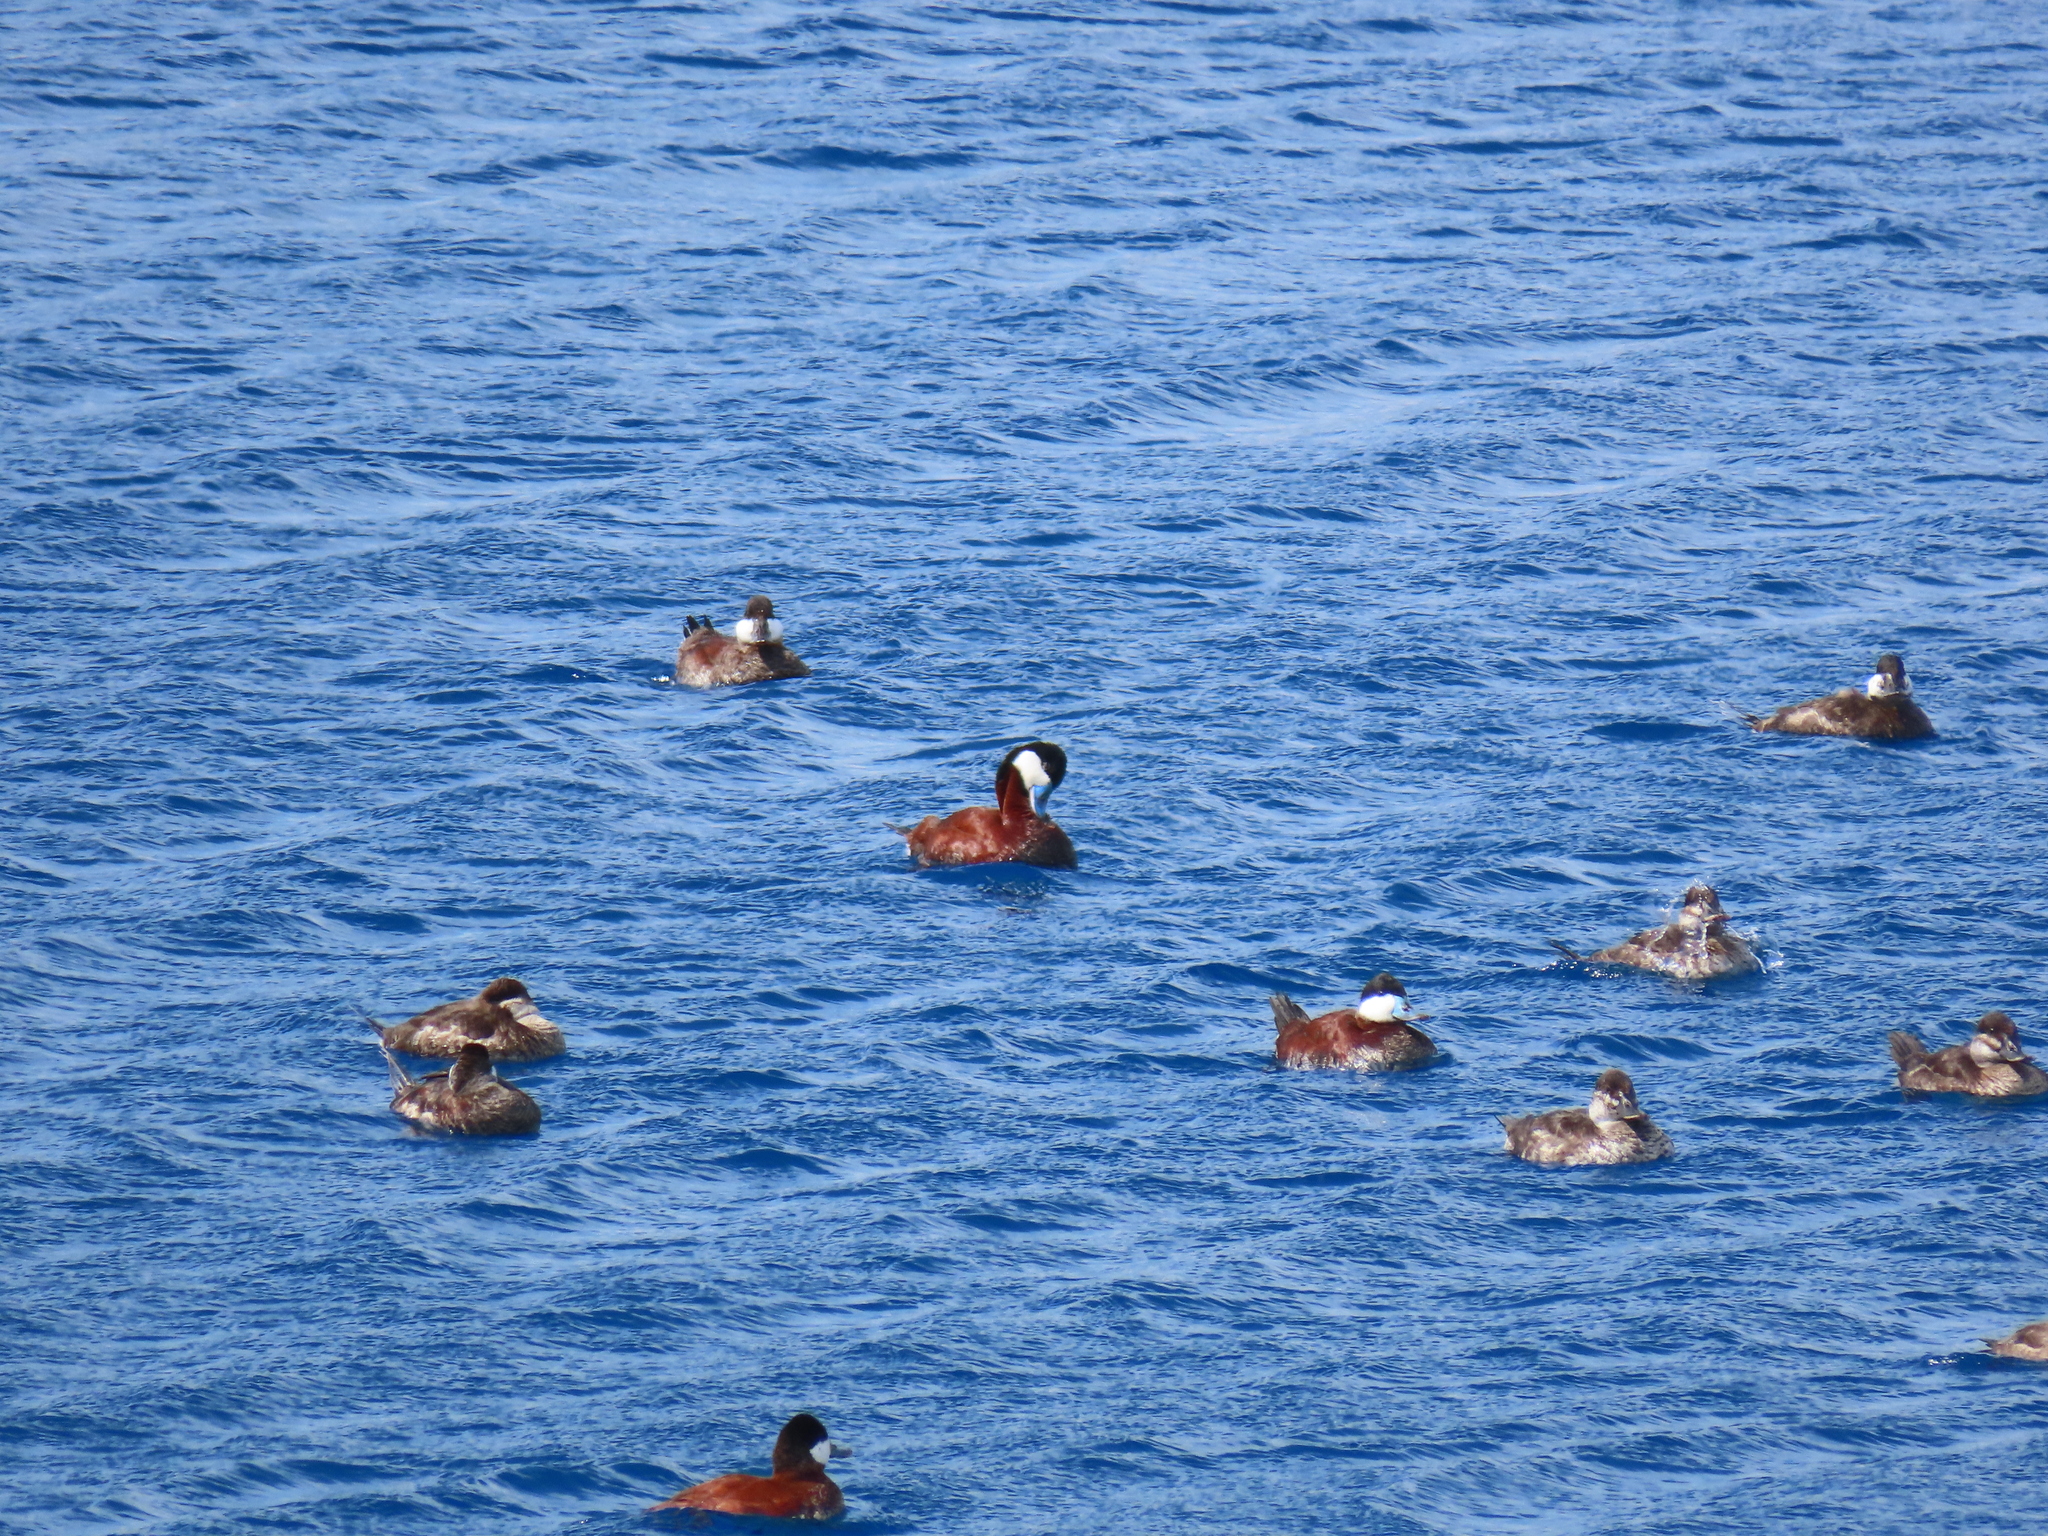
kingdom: Animalia
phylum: Chordata
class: Aves
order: Anseriformes
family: Anatidae
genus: Oxyura
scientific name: Oxyura jamaicensis
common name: Ruddy duck
